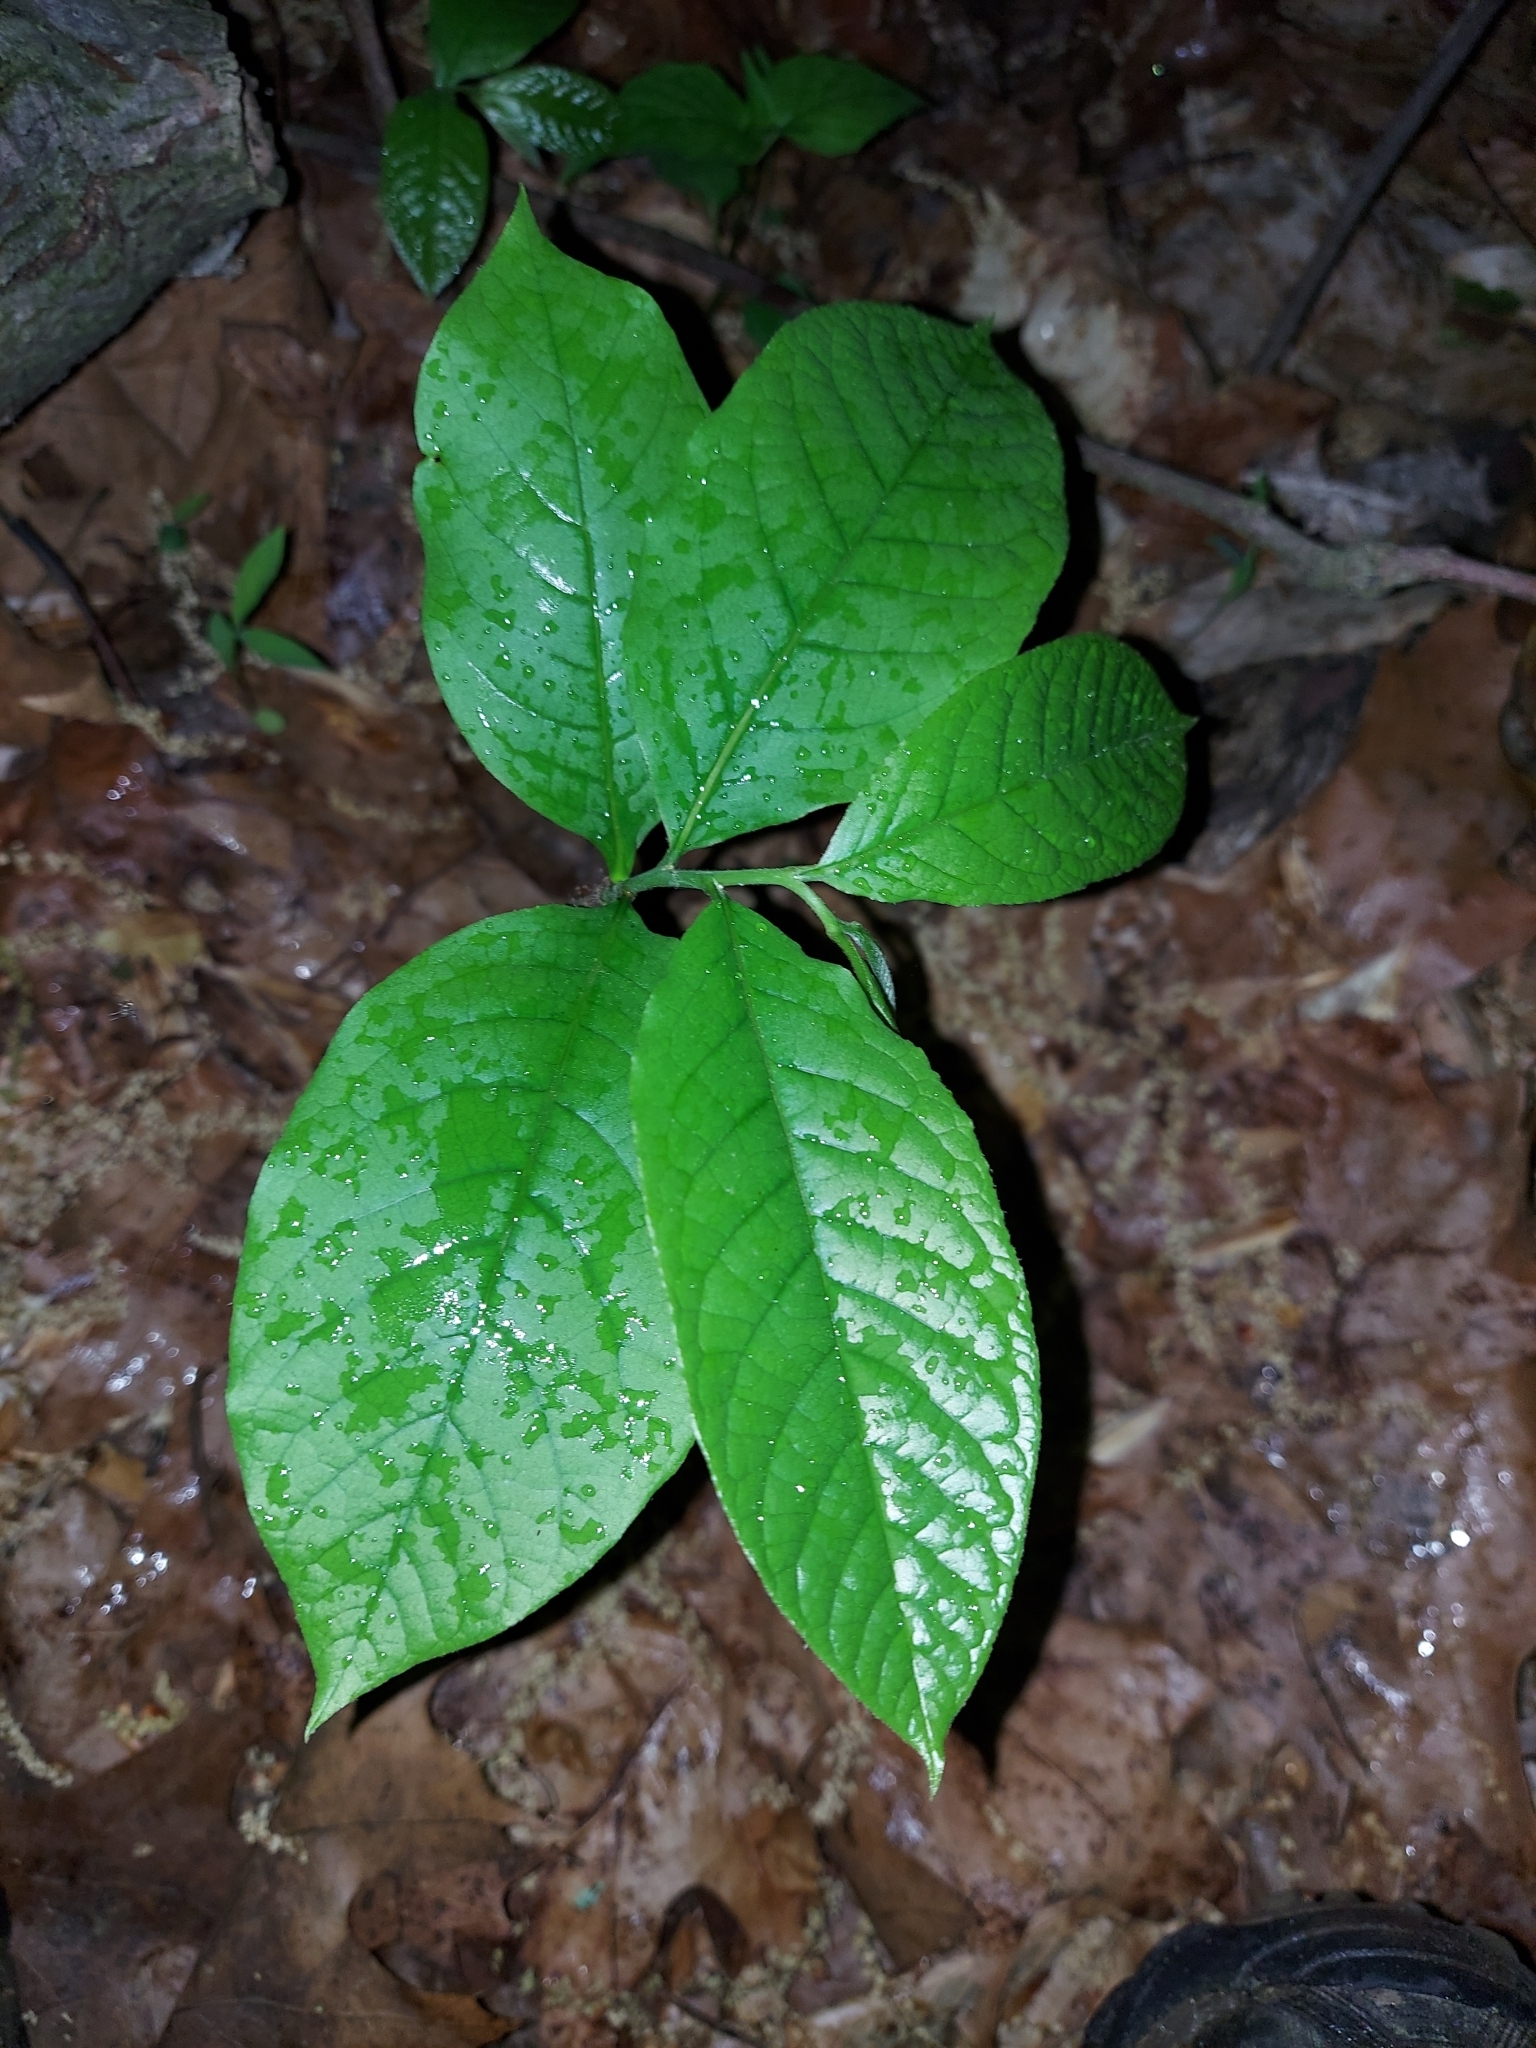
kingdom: Plantae
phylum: Tracheophyta
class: Magnoliopsida
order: Magnoliales
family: Annonaceae
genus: Asimina
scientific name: Asimina triloba
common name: Dog-banana
